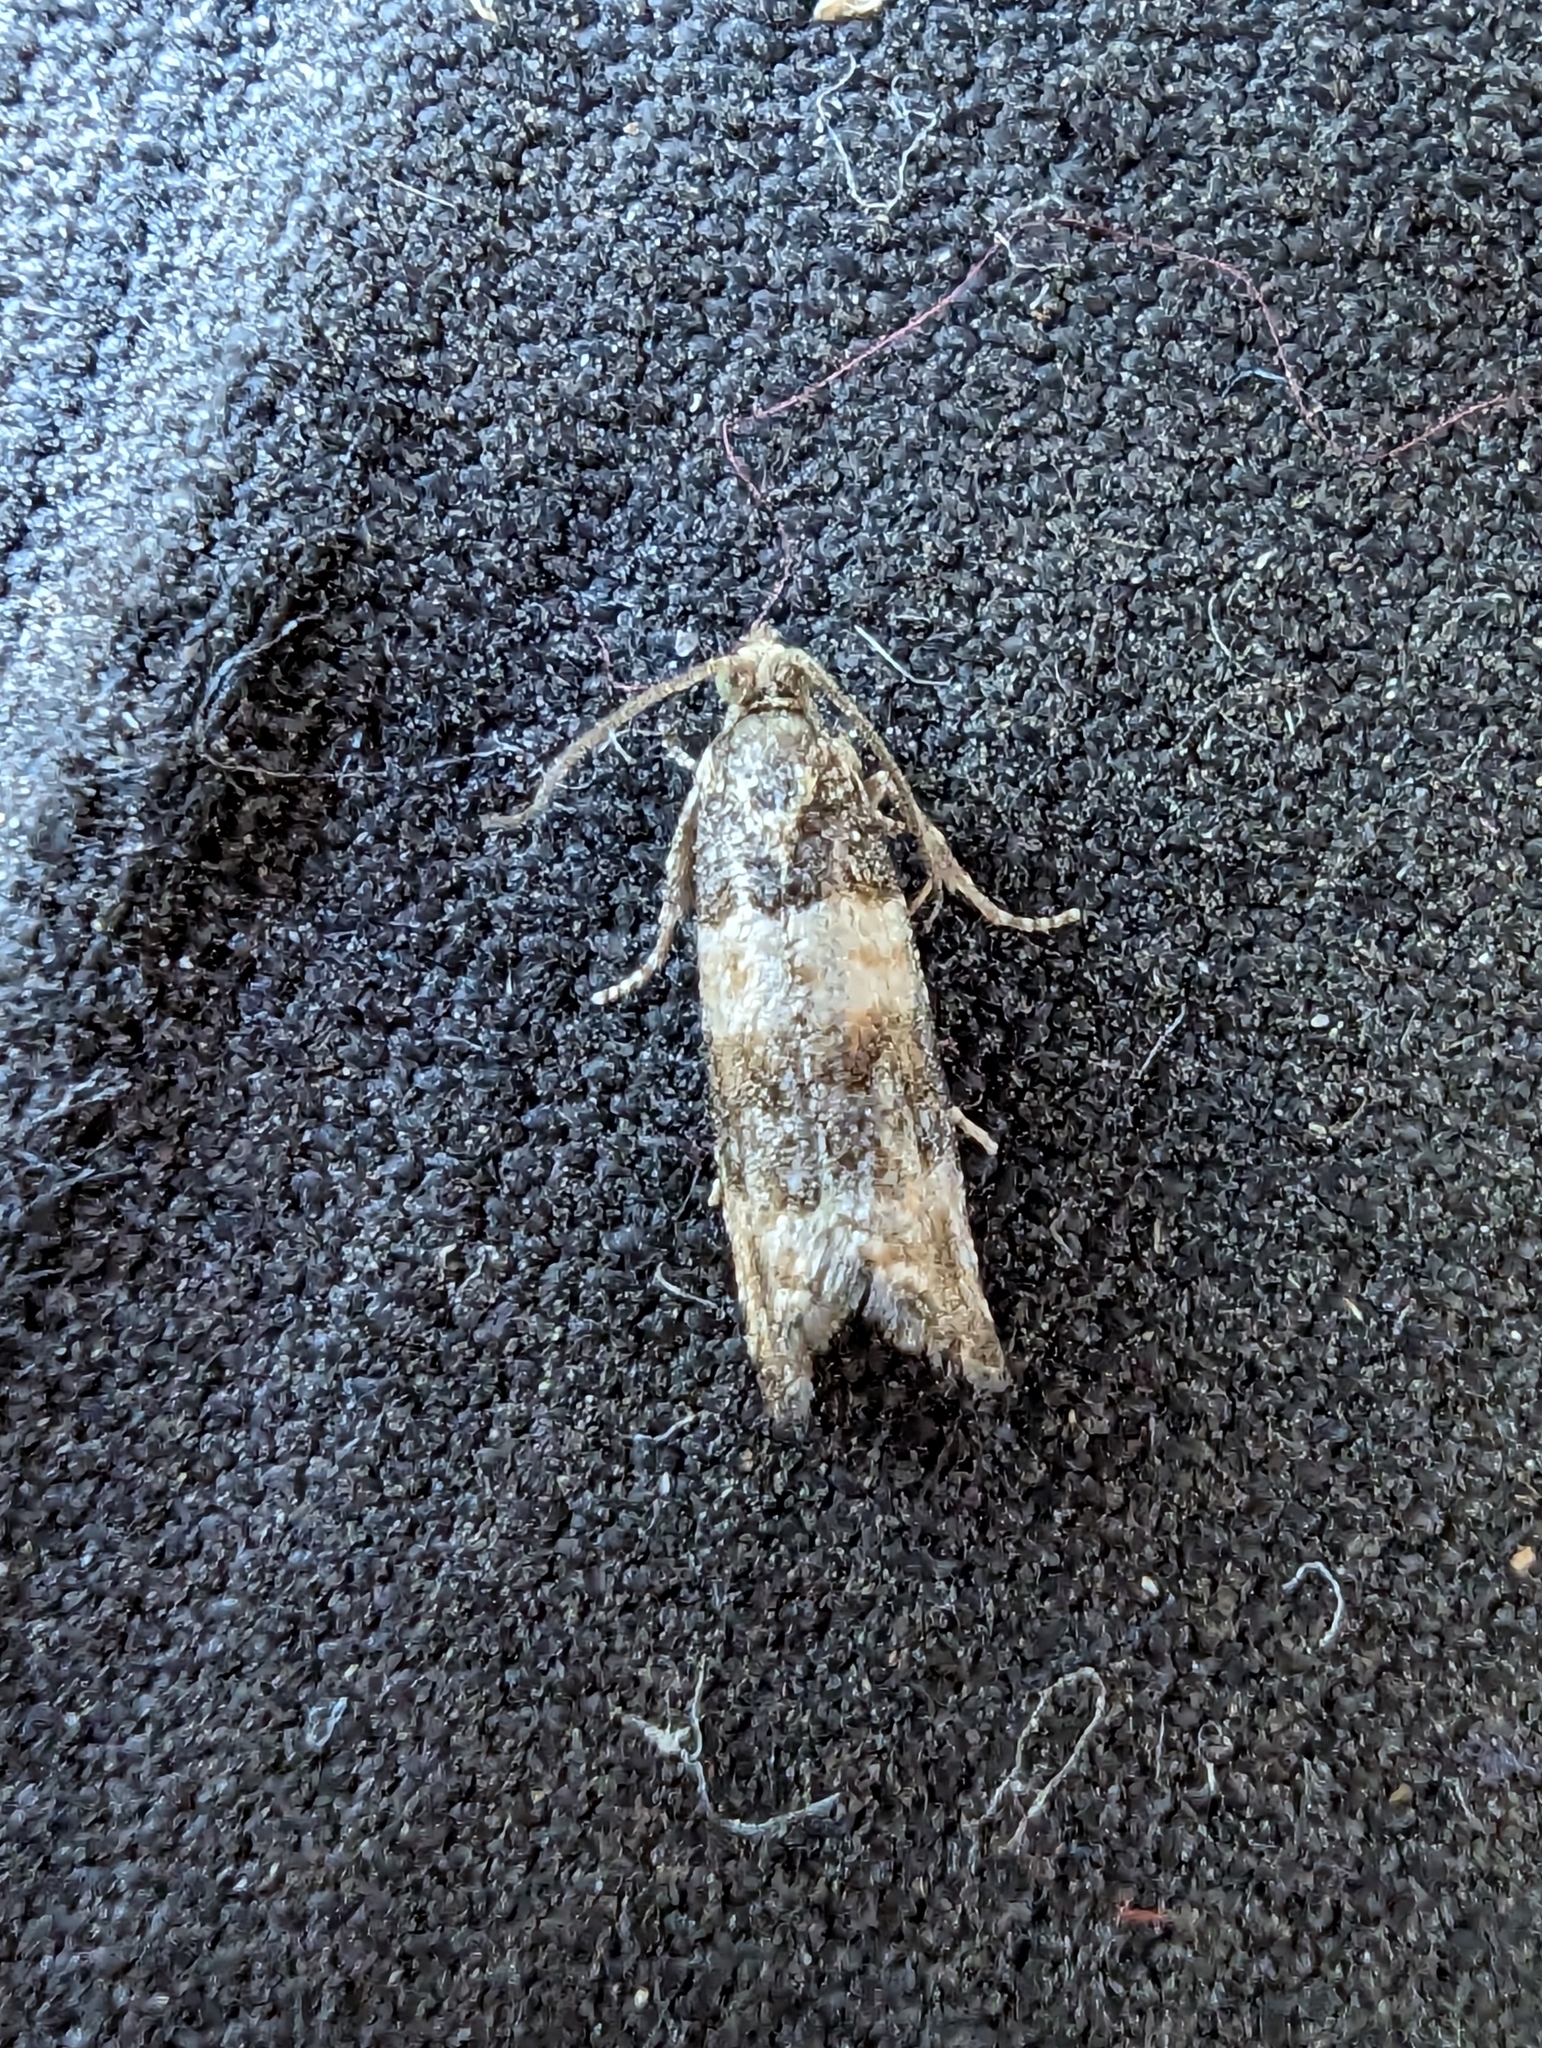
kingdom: Animalia
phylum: Arthropoda
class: Insecta
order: Lepidoptera
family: Tortricidae
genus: Piniphila
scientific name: Piniphila bifasciana
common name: Pine marble
